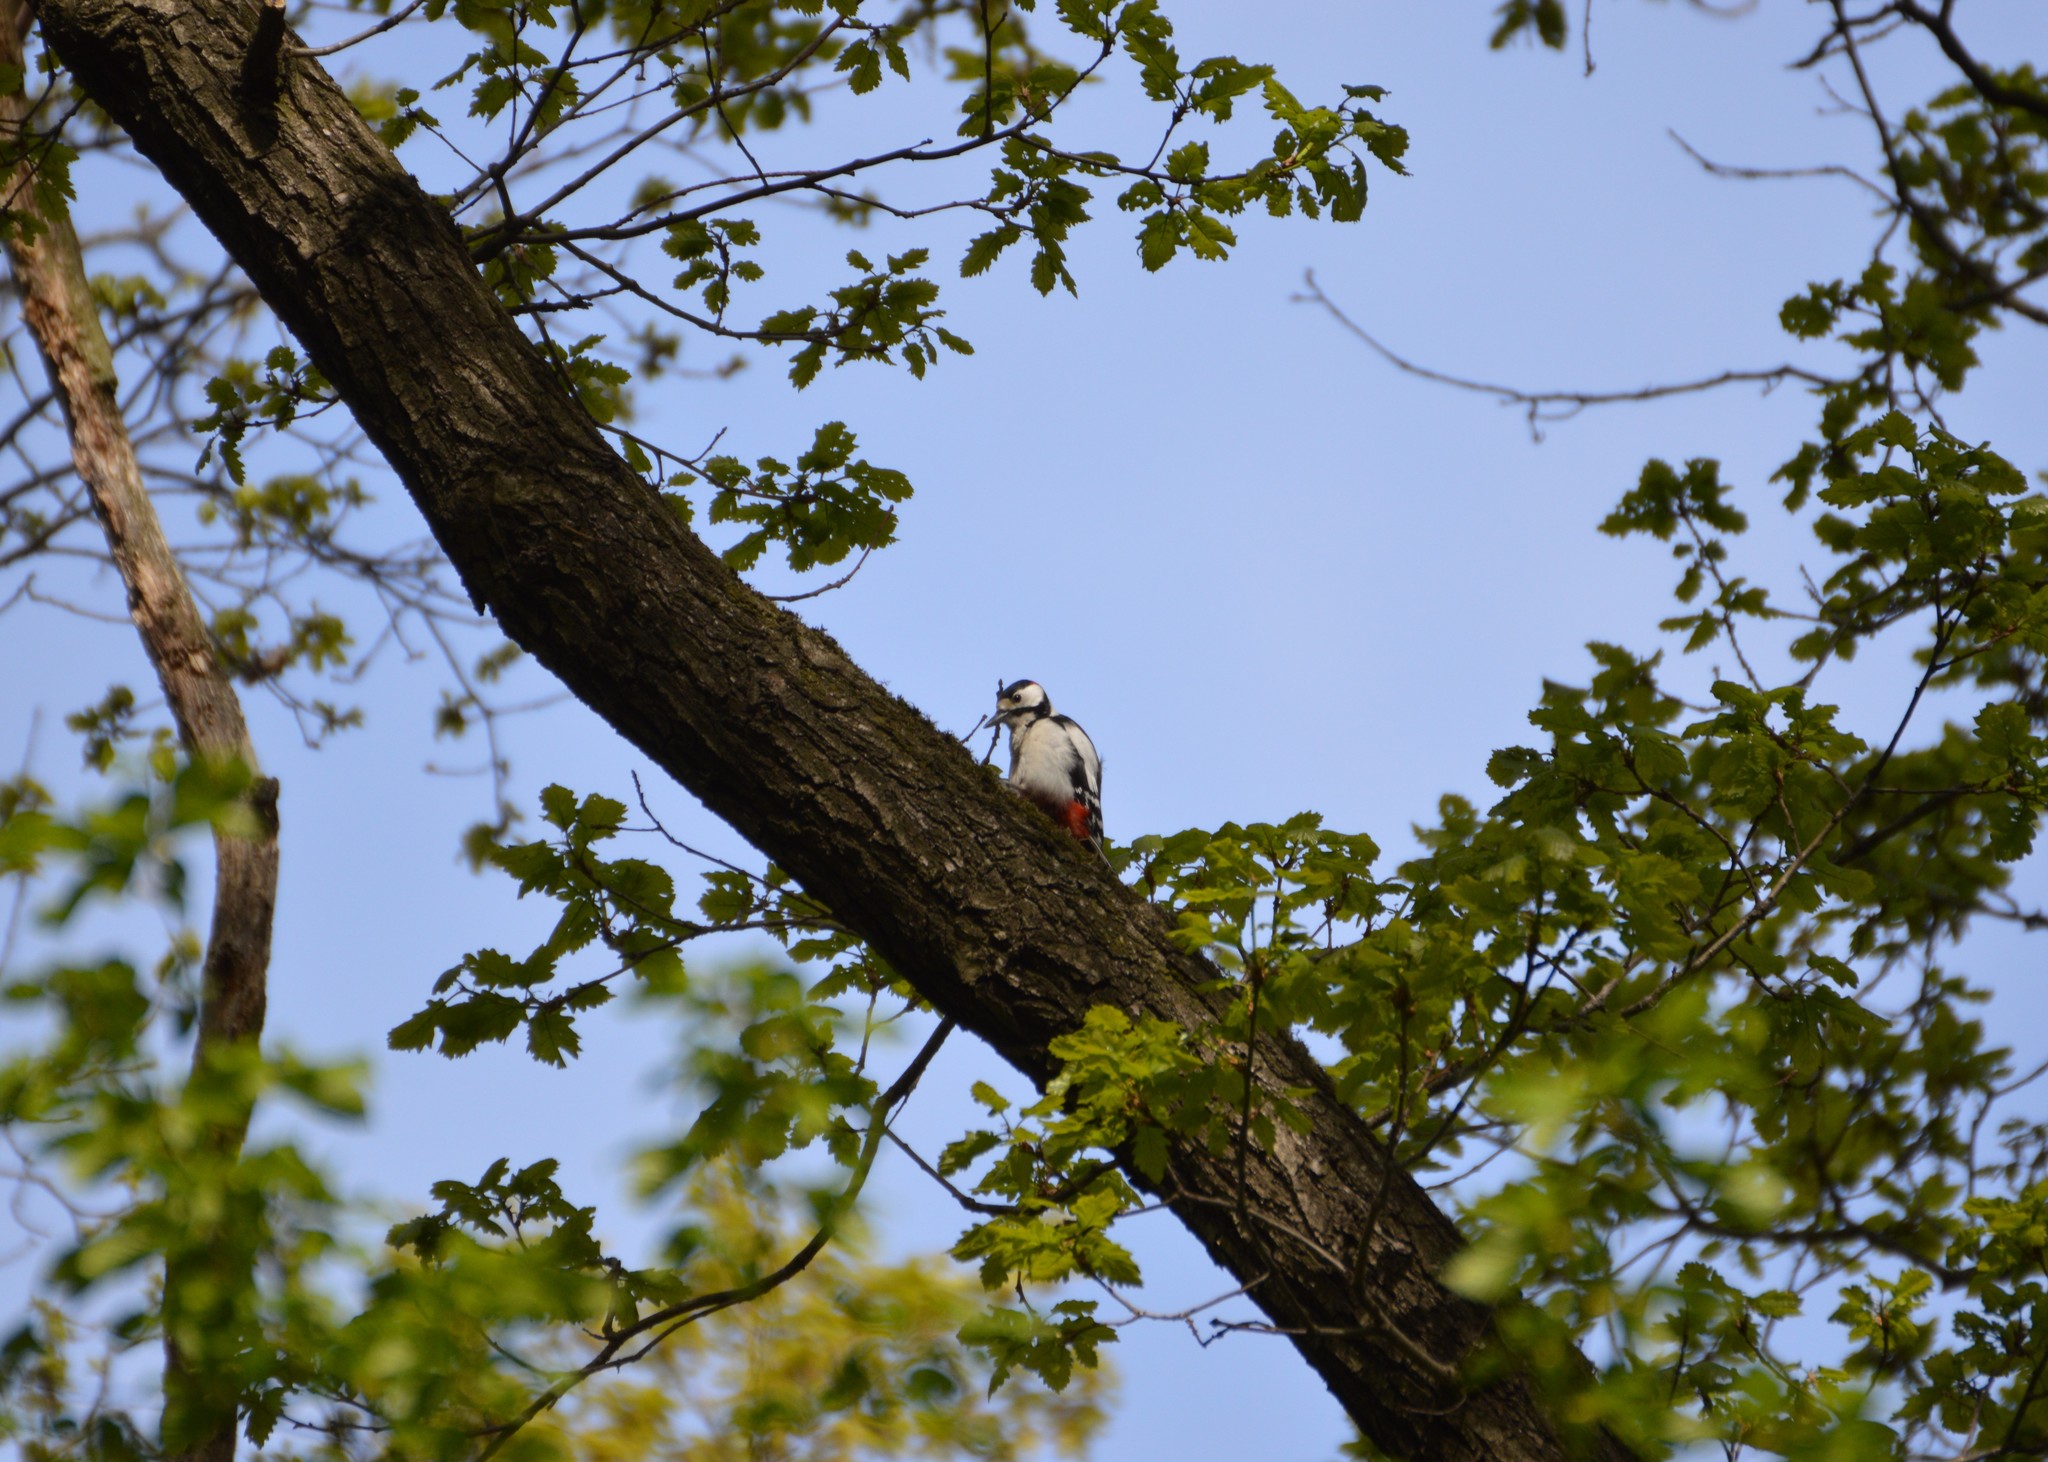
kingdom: Animalia
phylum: Chordata
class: Aves
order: Piciformes
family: Picidae
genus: Dendrocopos
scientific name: Dendrocopos major
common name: Great spotted woodpecker
